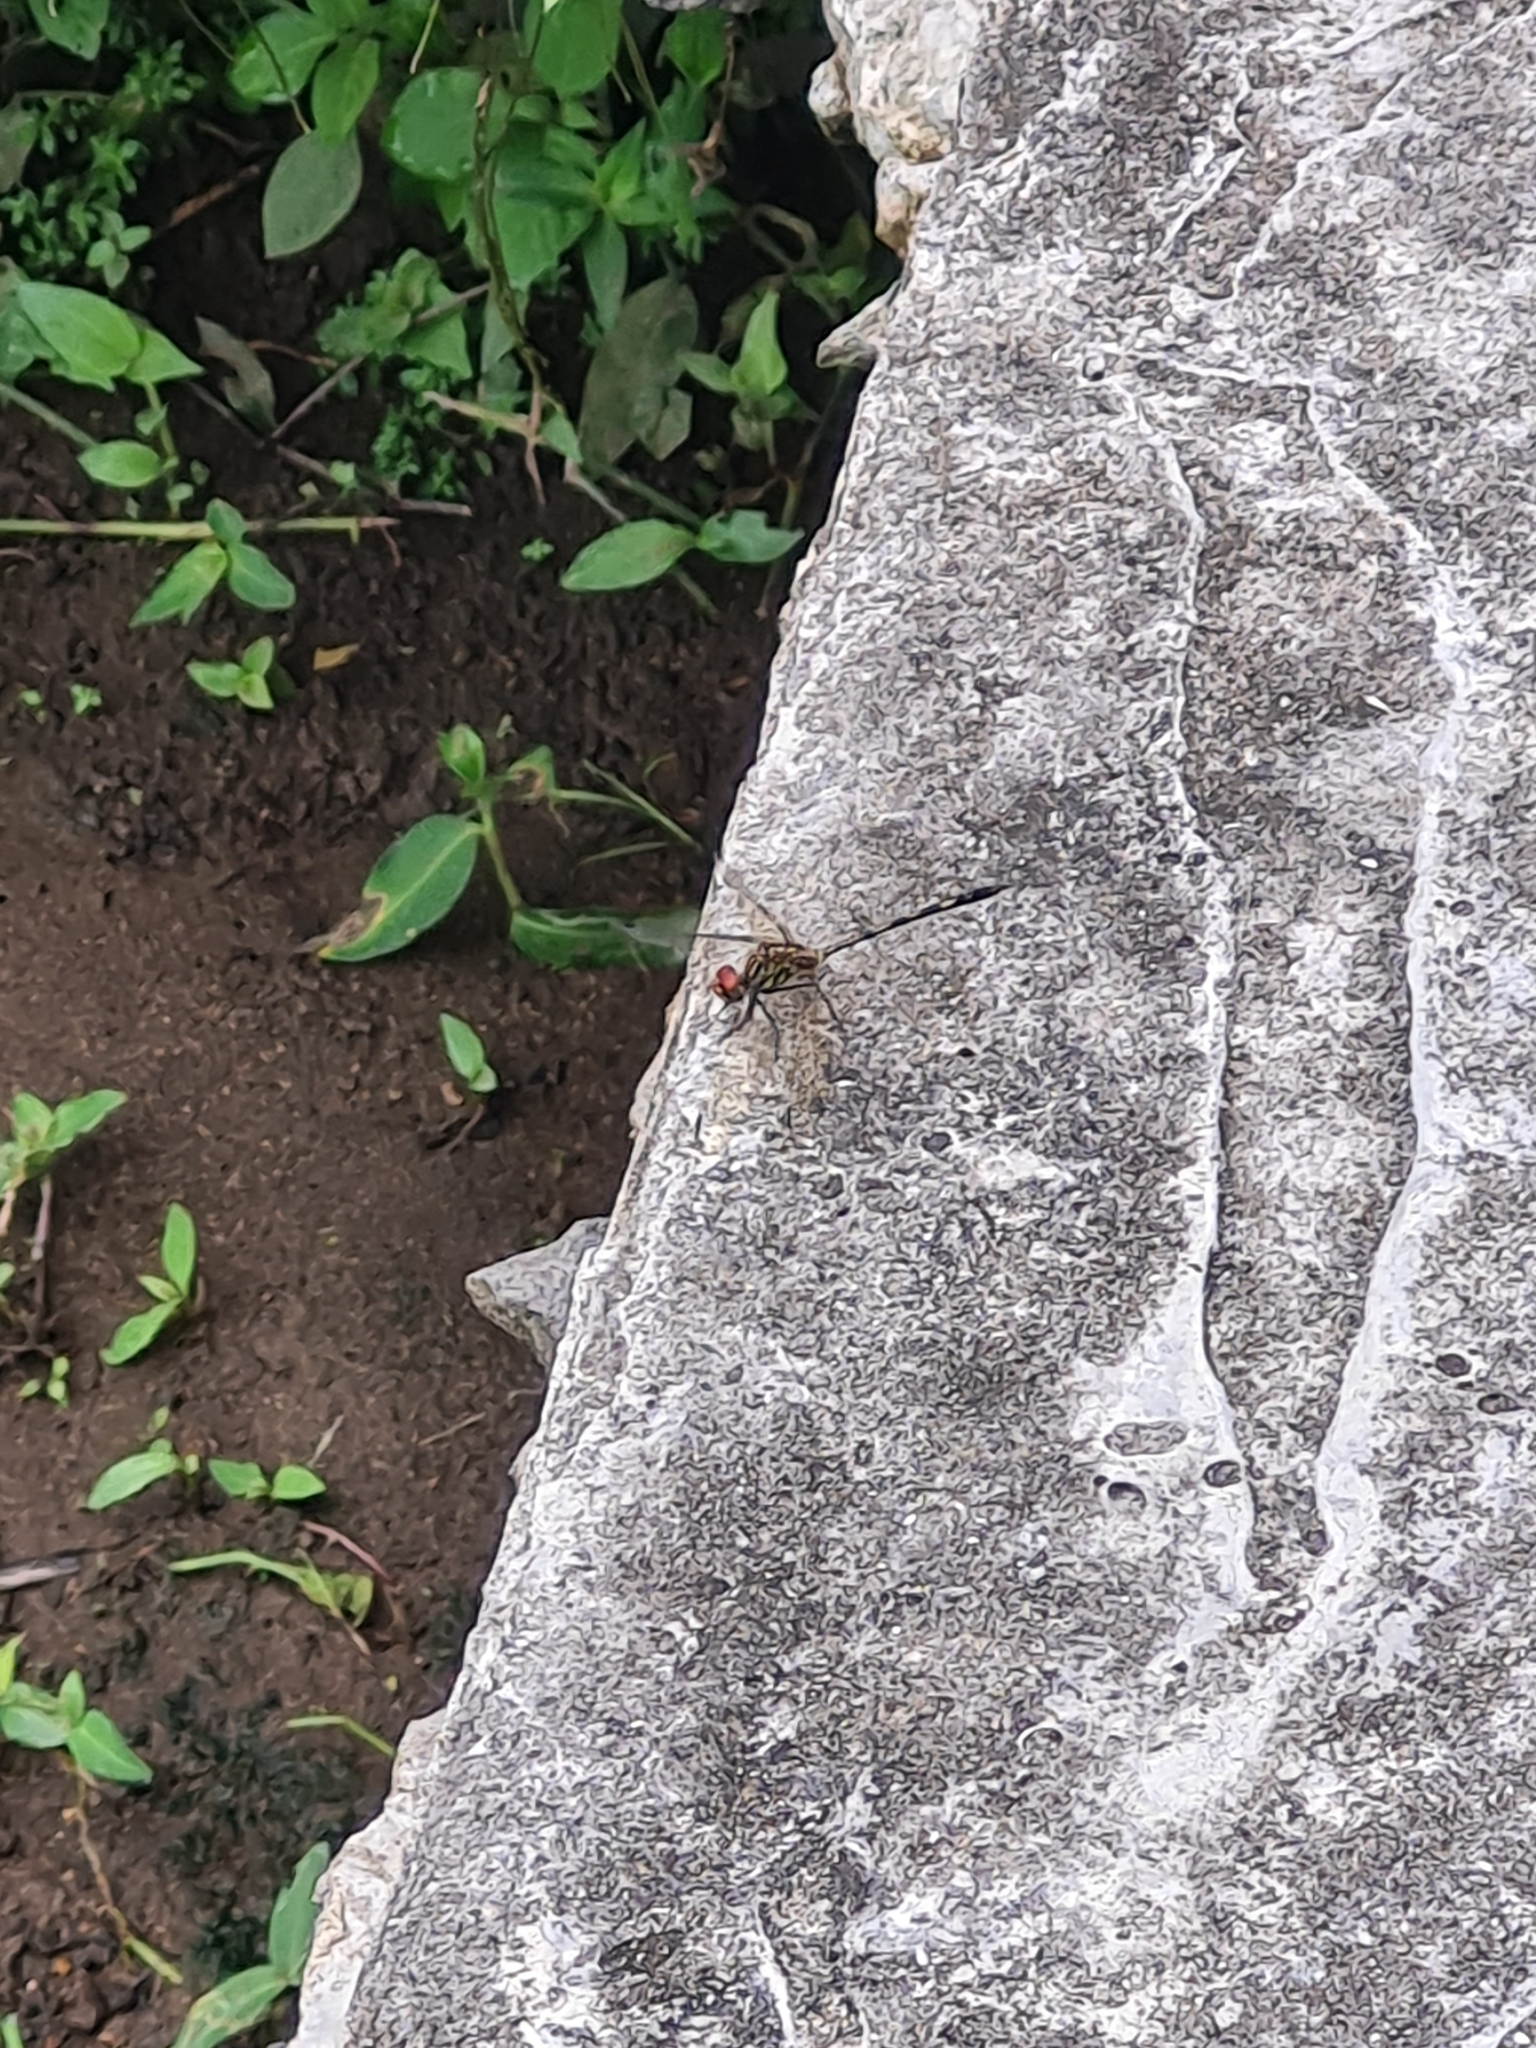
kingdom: Animalia
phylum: Arthropoda
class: Insecta
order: Odonata
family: Libellulidae
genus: Dythemis
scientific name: Dythemis sterilis
